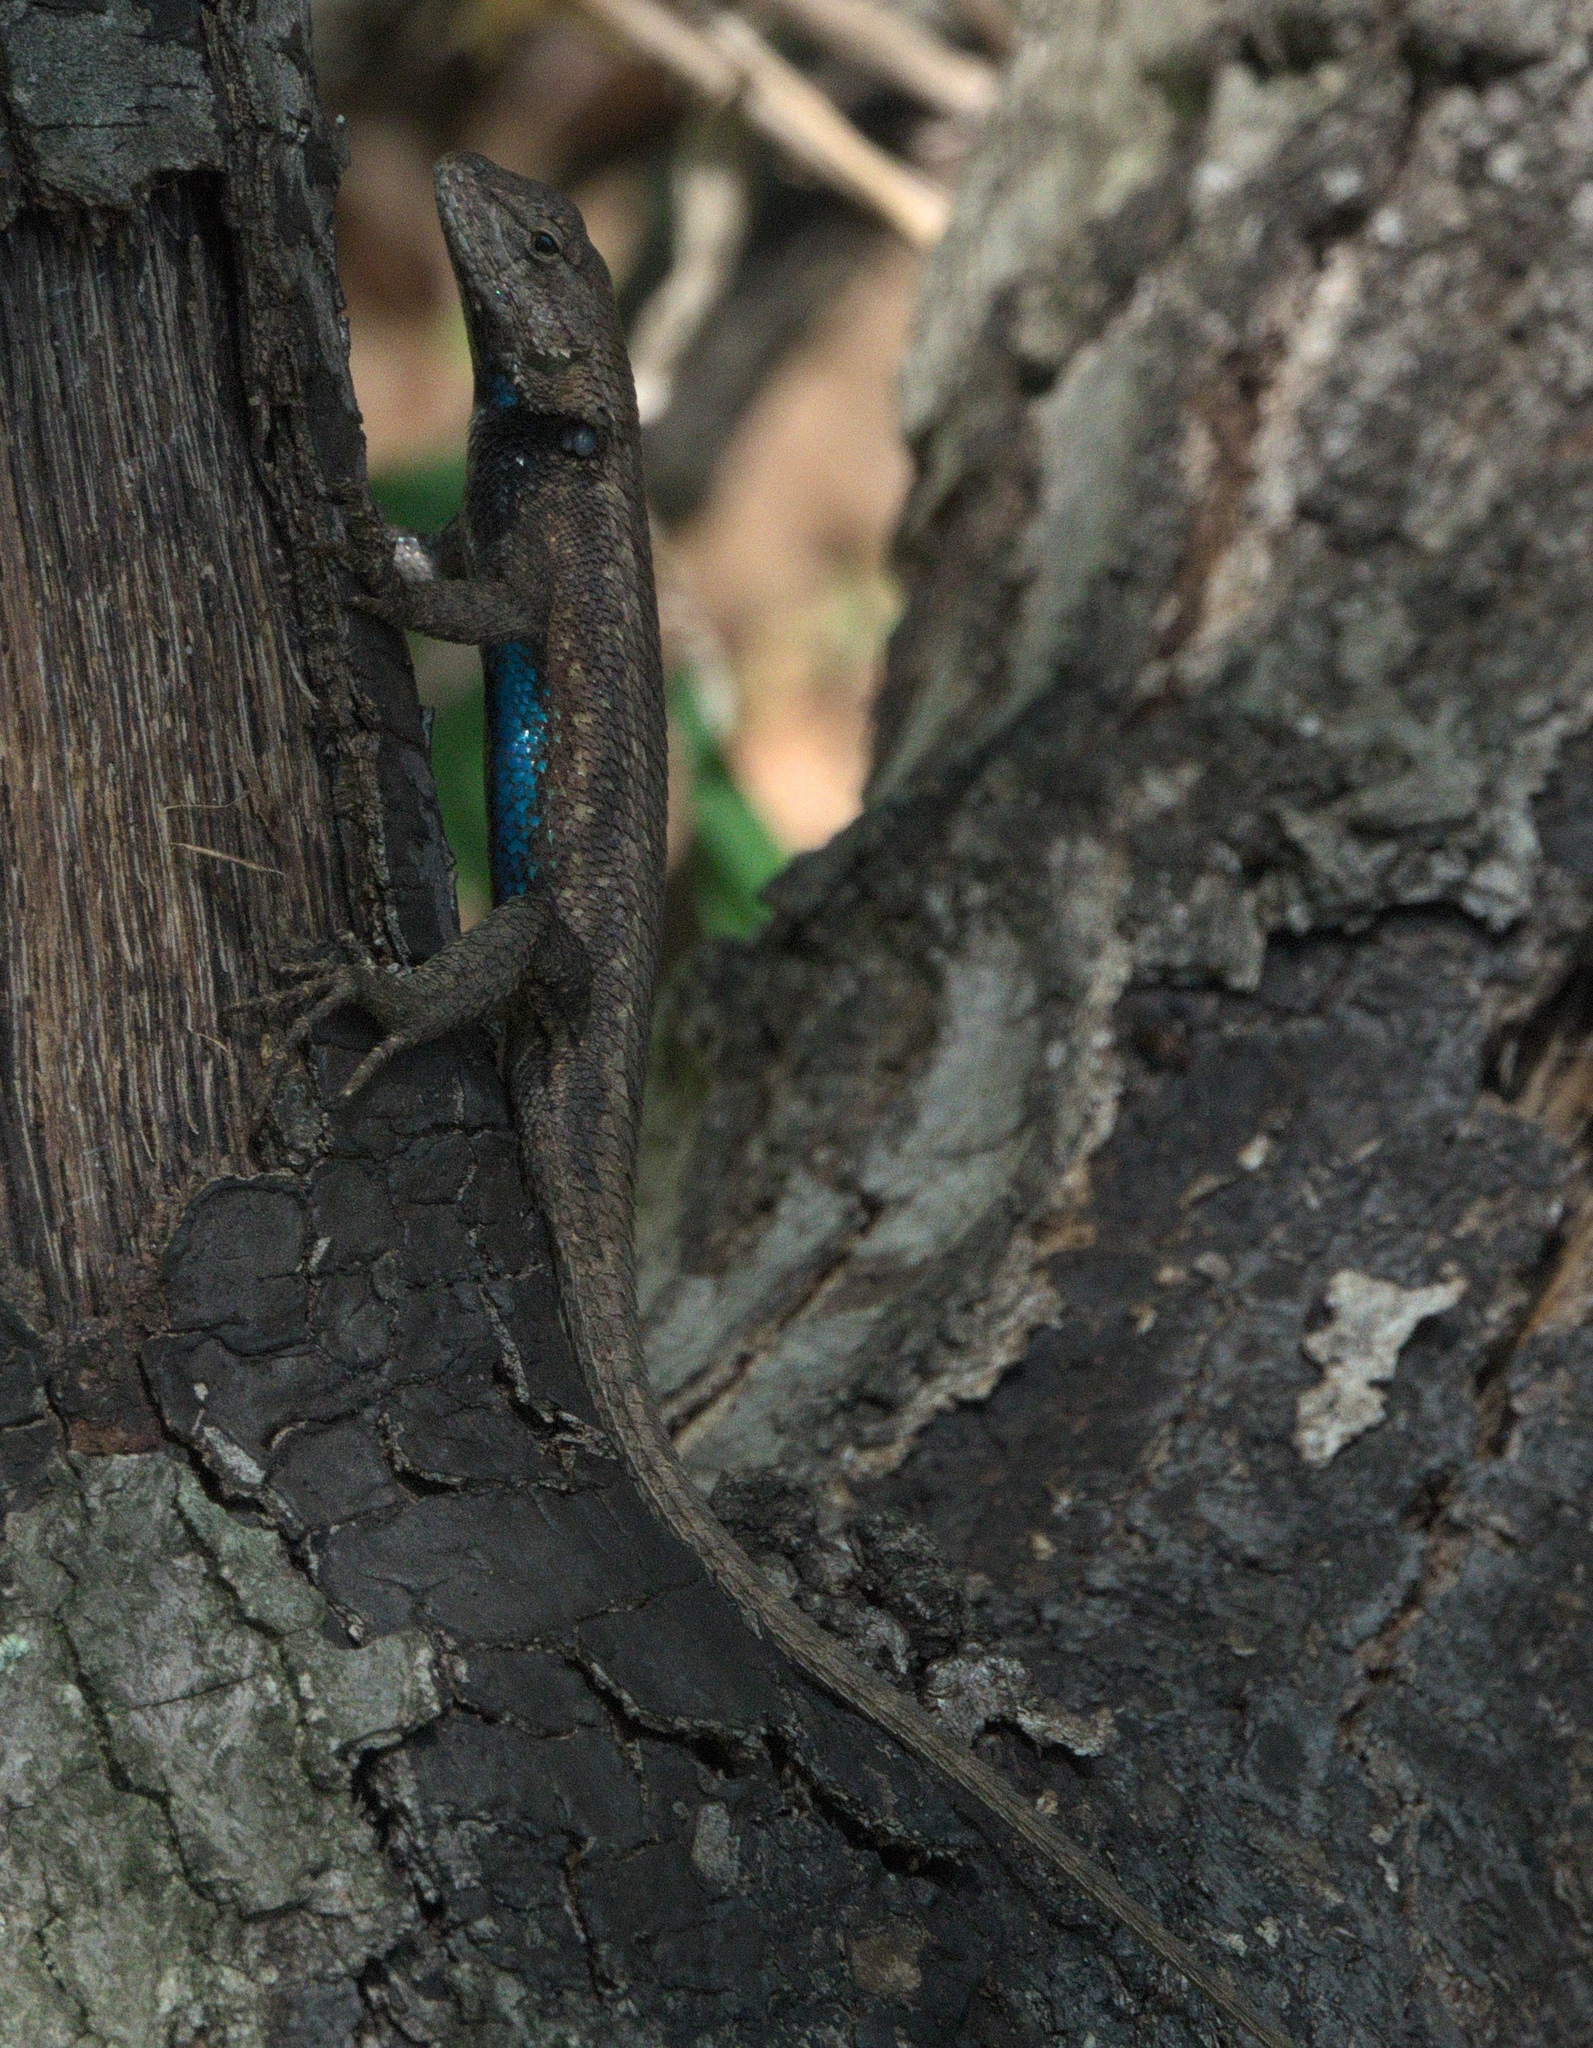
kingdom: Animalia
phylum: Chordata
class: Squamata
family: Phrynosomatidae
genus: Sceloporus
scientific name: Sceloporus consobrinus
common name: Southern prairie lizard
